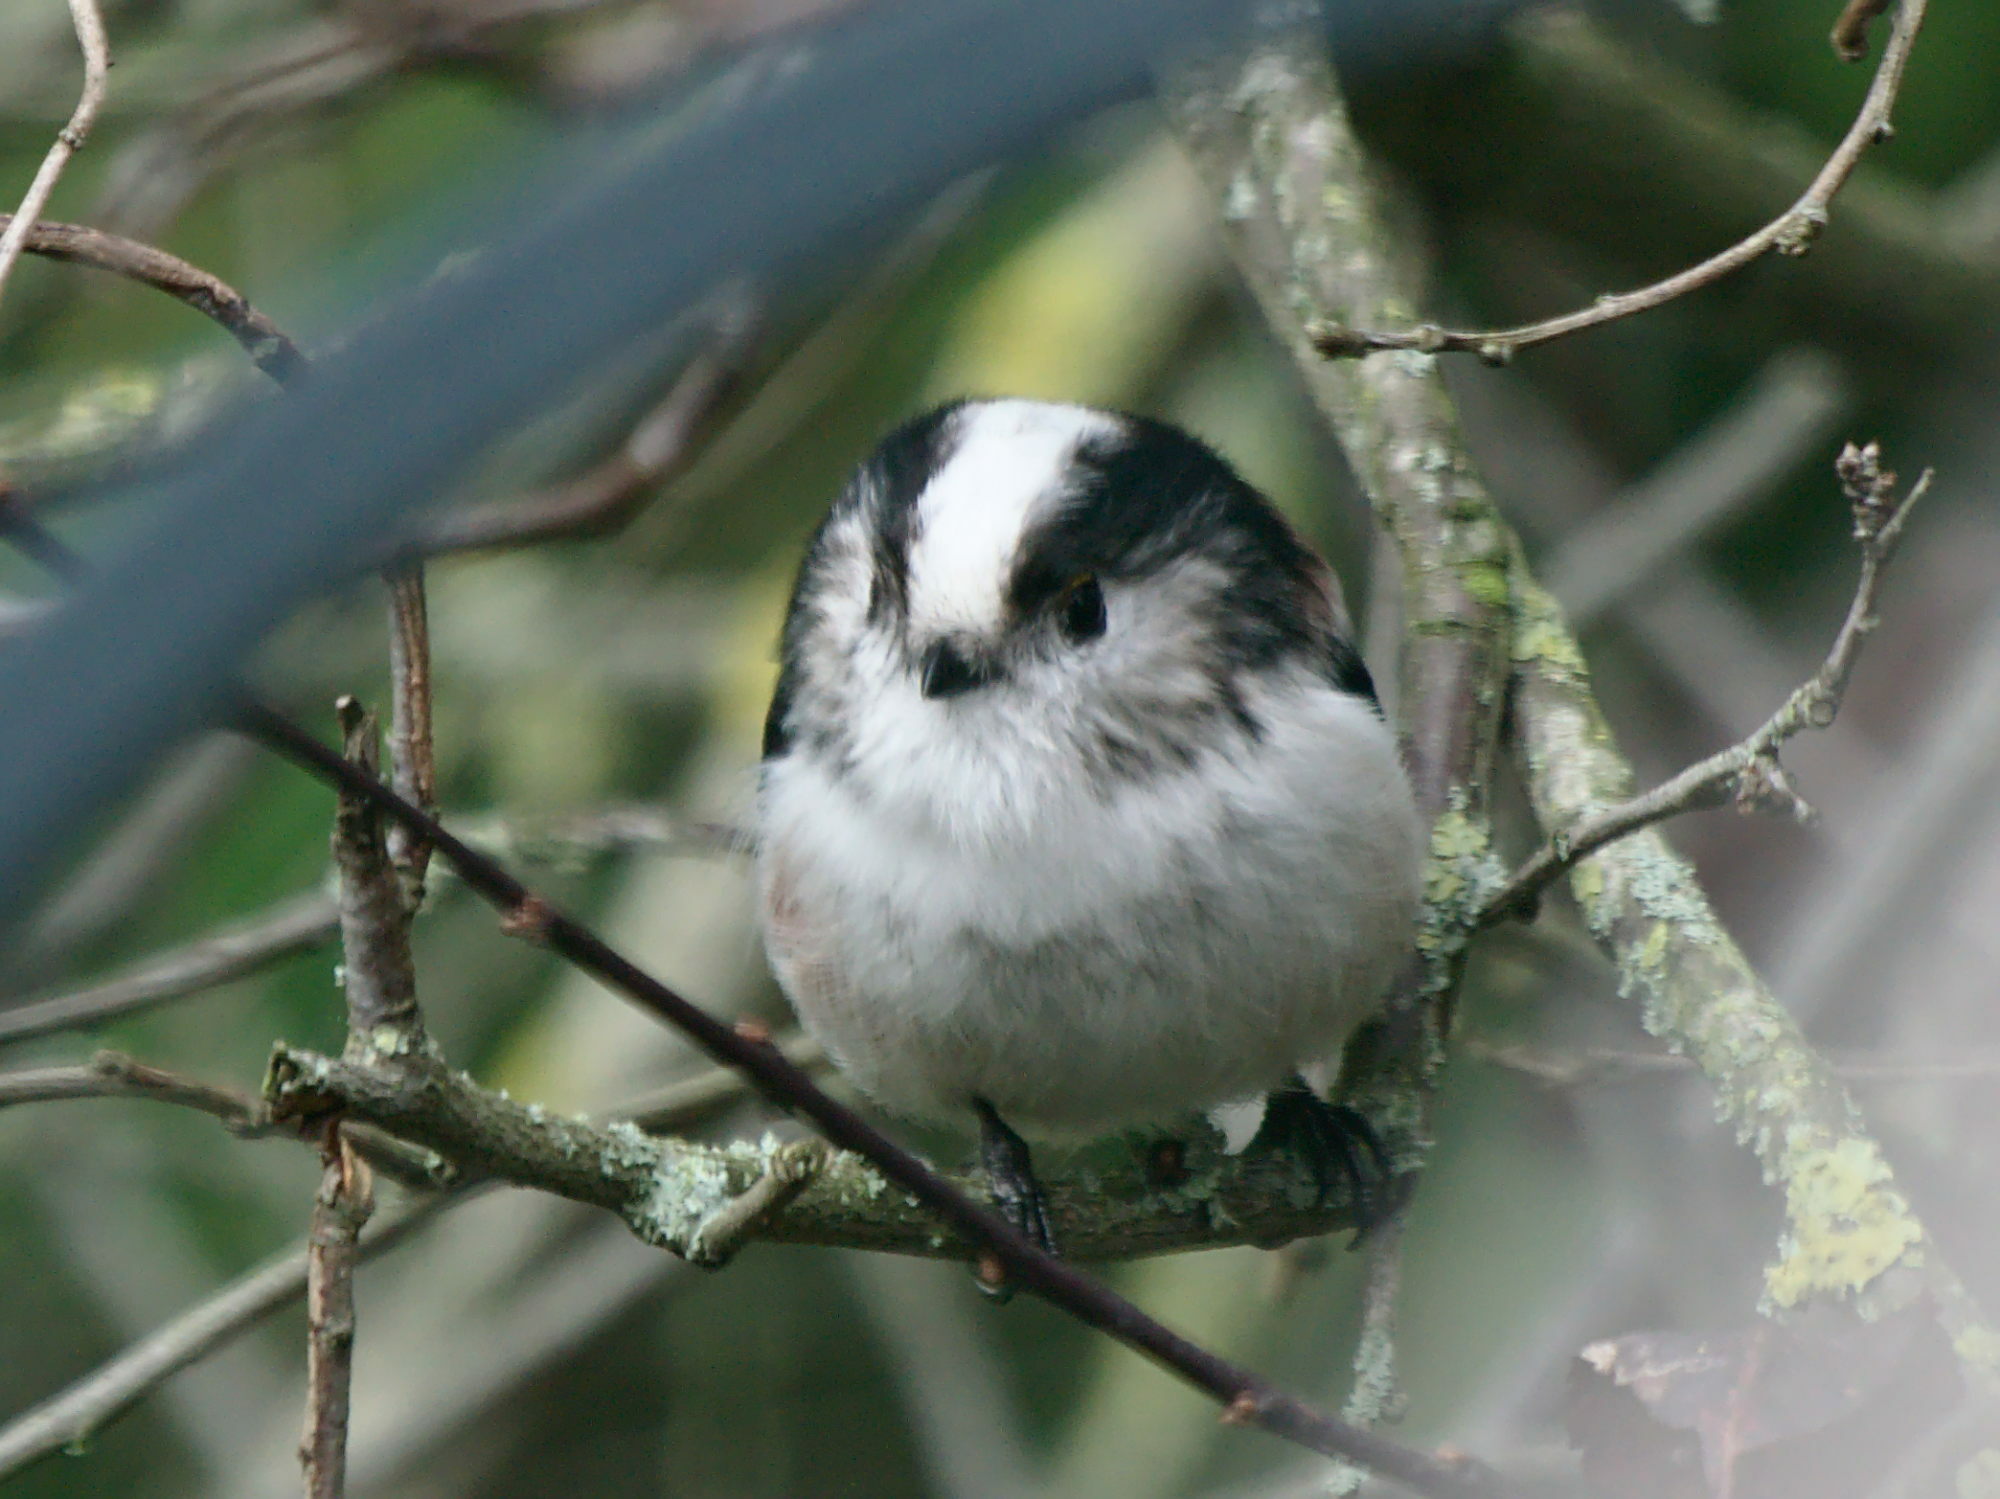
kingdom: Animalia
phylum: Chordata
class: Aves
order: Passeriformes
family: Aegithalidae
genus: Aegithalos
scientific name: Aegithalos caudatus
